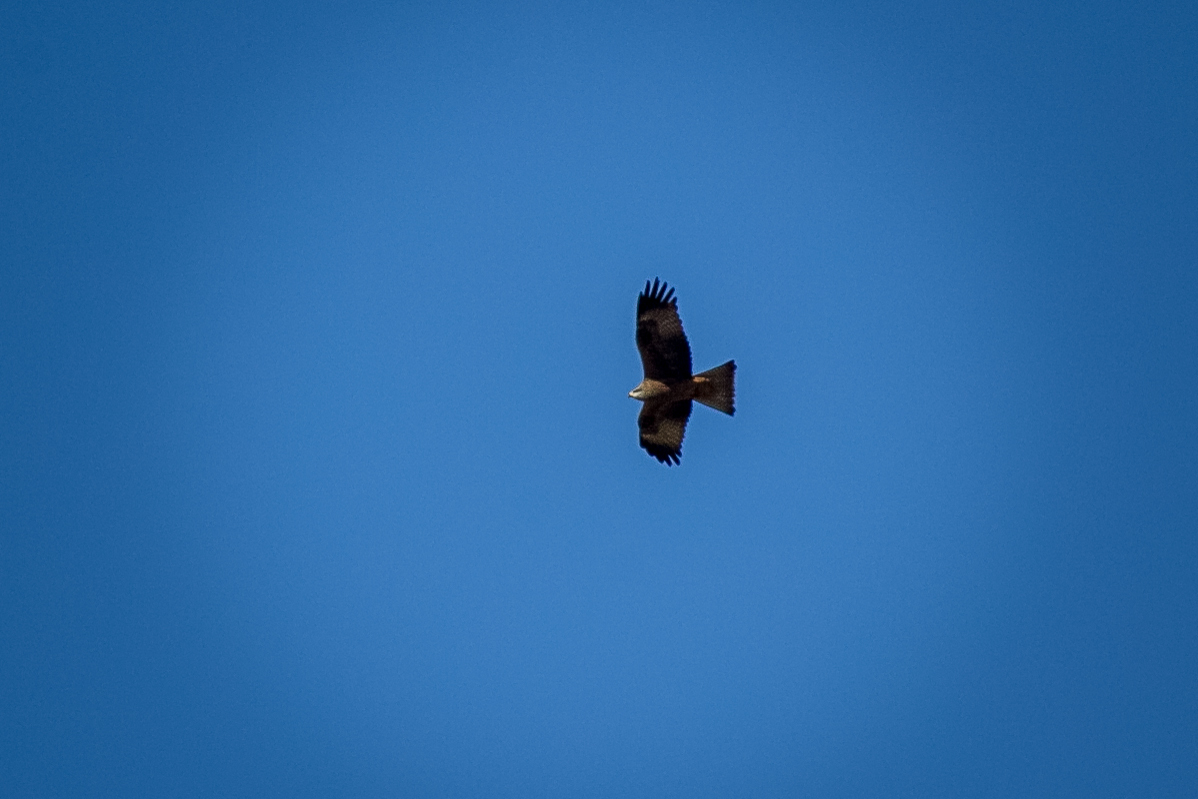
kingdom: Animalia
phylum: Chordata
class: Aves
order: Accipitriformes
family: Accipitridae
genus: Milvus
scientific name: Milvus migrans
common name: Black kite
